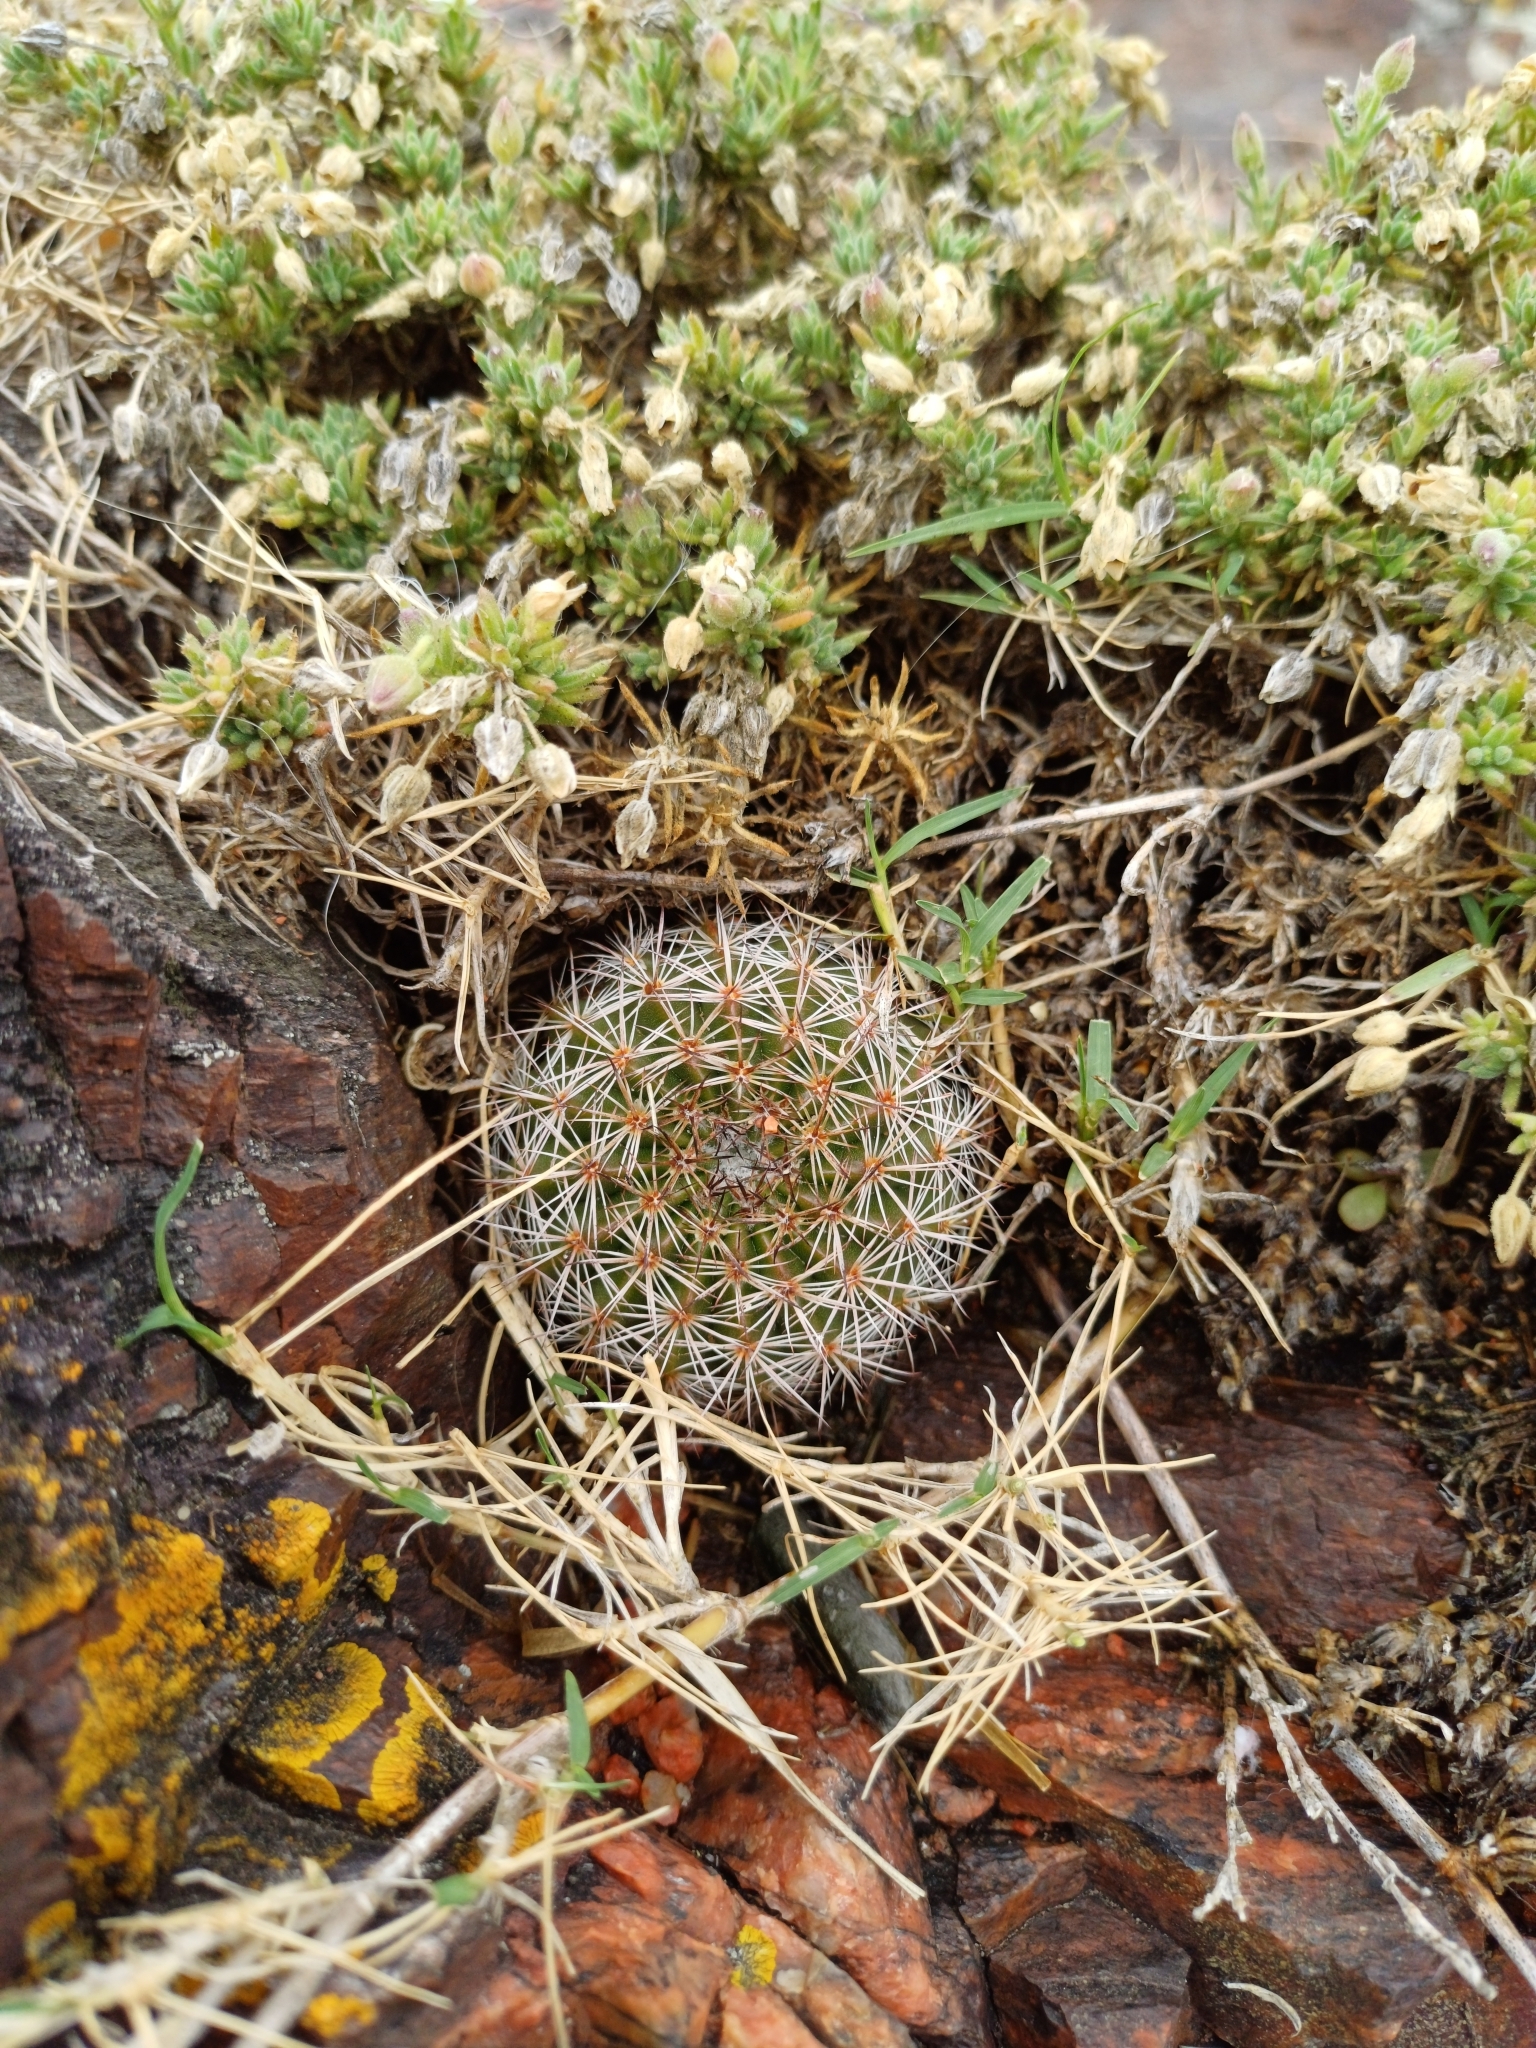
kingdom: Plantae
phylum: Tracheophyta
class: Magnoliopsida
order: Caryophyllales
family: Cactaceae
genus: Parodia
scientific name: Parodia erinacea
